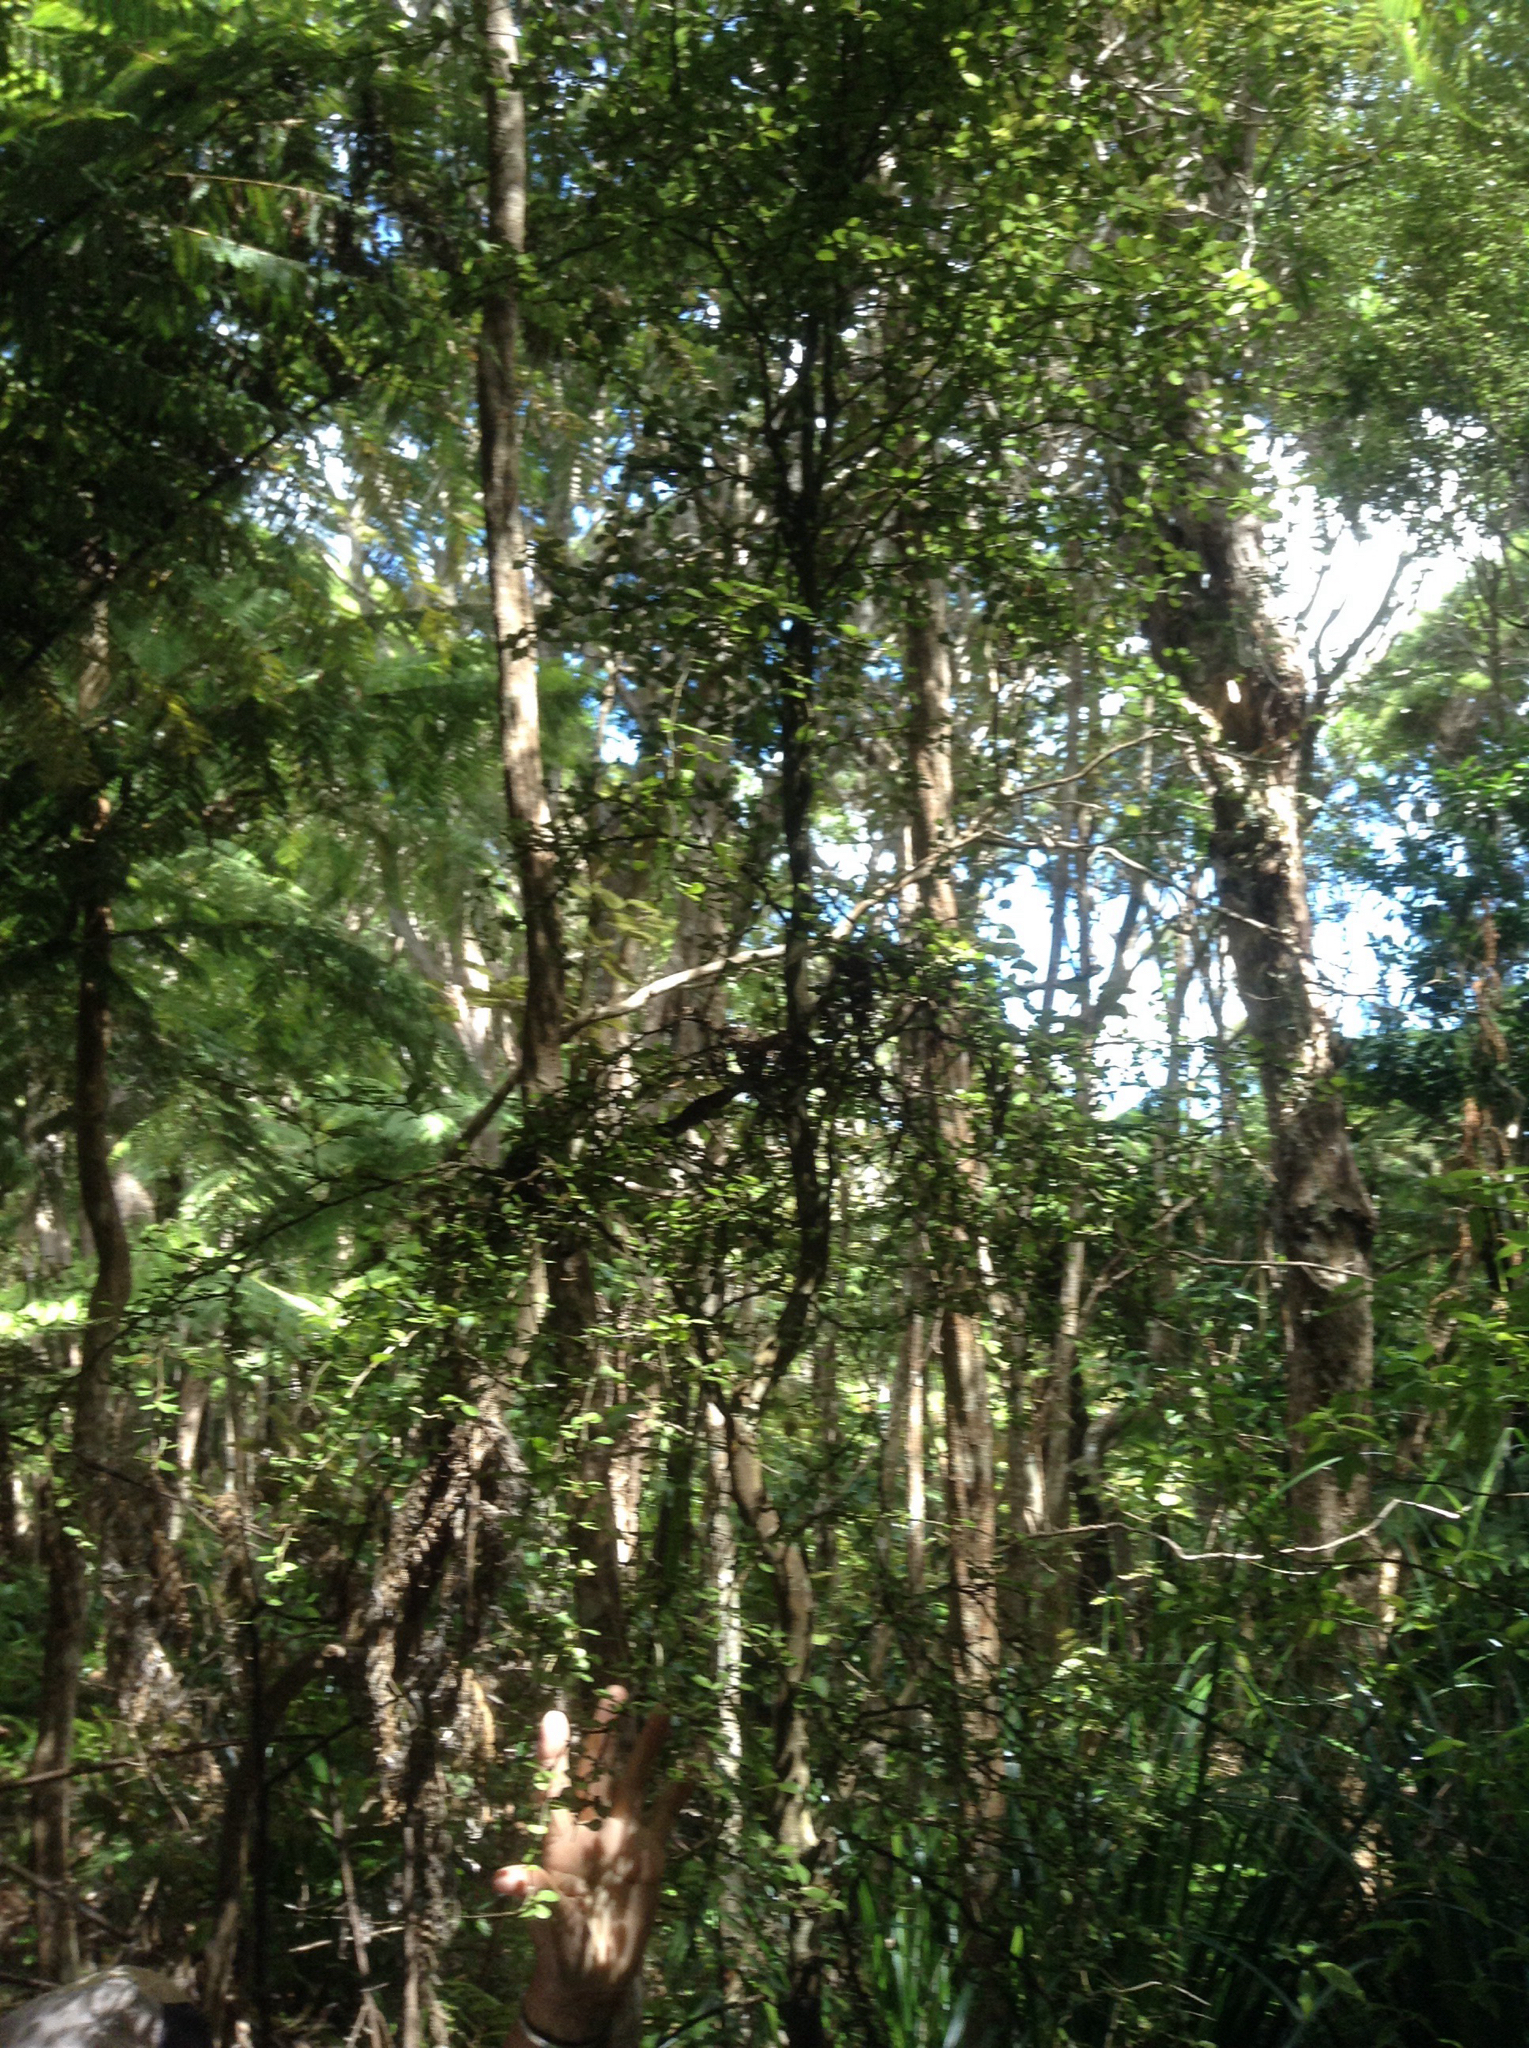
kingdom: Plantae
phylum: Tracheophyta
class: Magnoliopsida
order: Malpighiales
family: Violaceae
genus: Melicytus
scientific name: Melicytus micranthus
